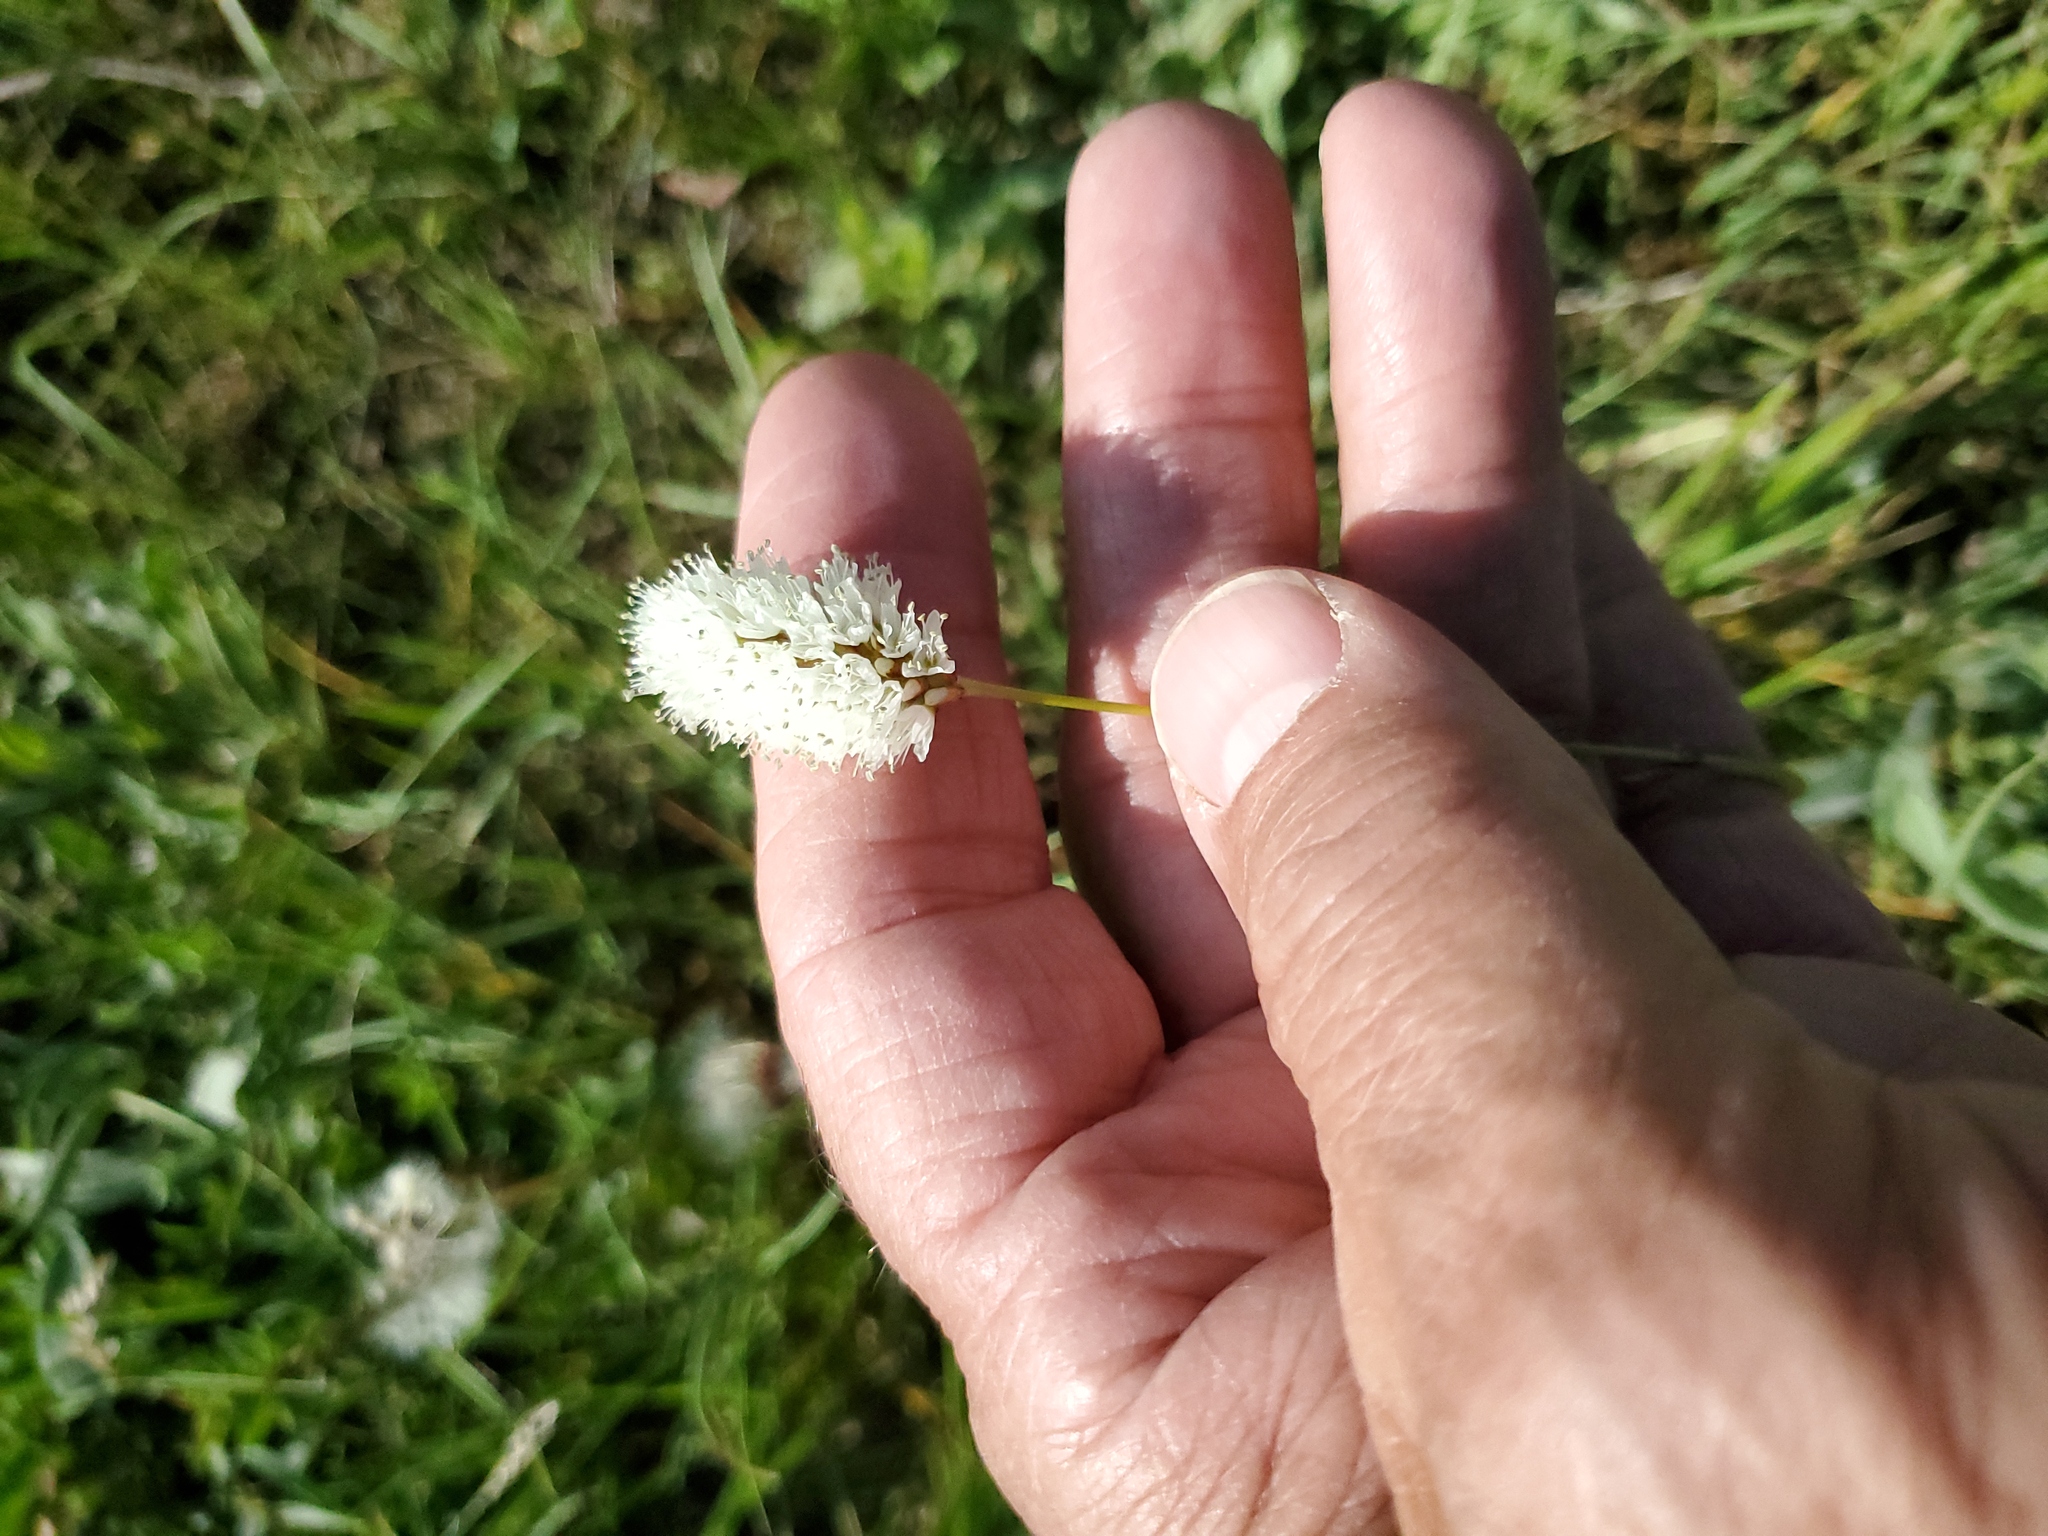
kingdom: Plantae
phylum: Tracheophyta
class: Magnoliopsida
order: Caryophyllales
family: Polygonaceae
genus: Bistorta
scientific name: Bistorta bistortoides
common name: American bistort
